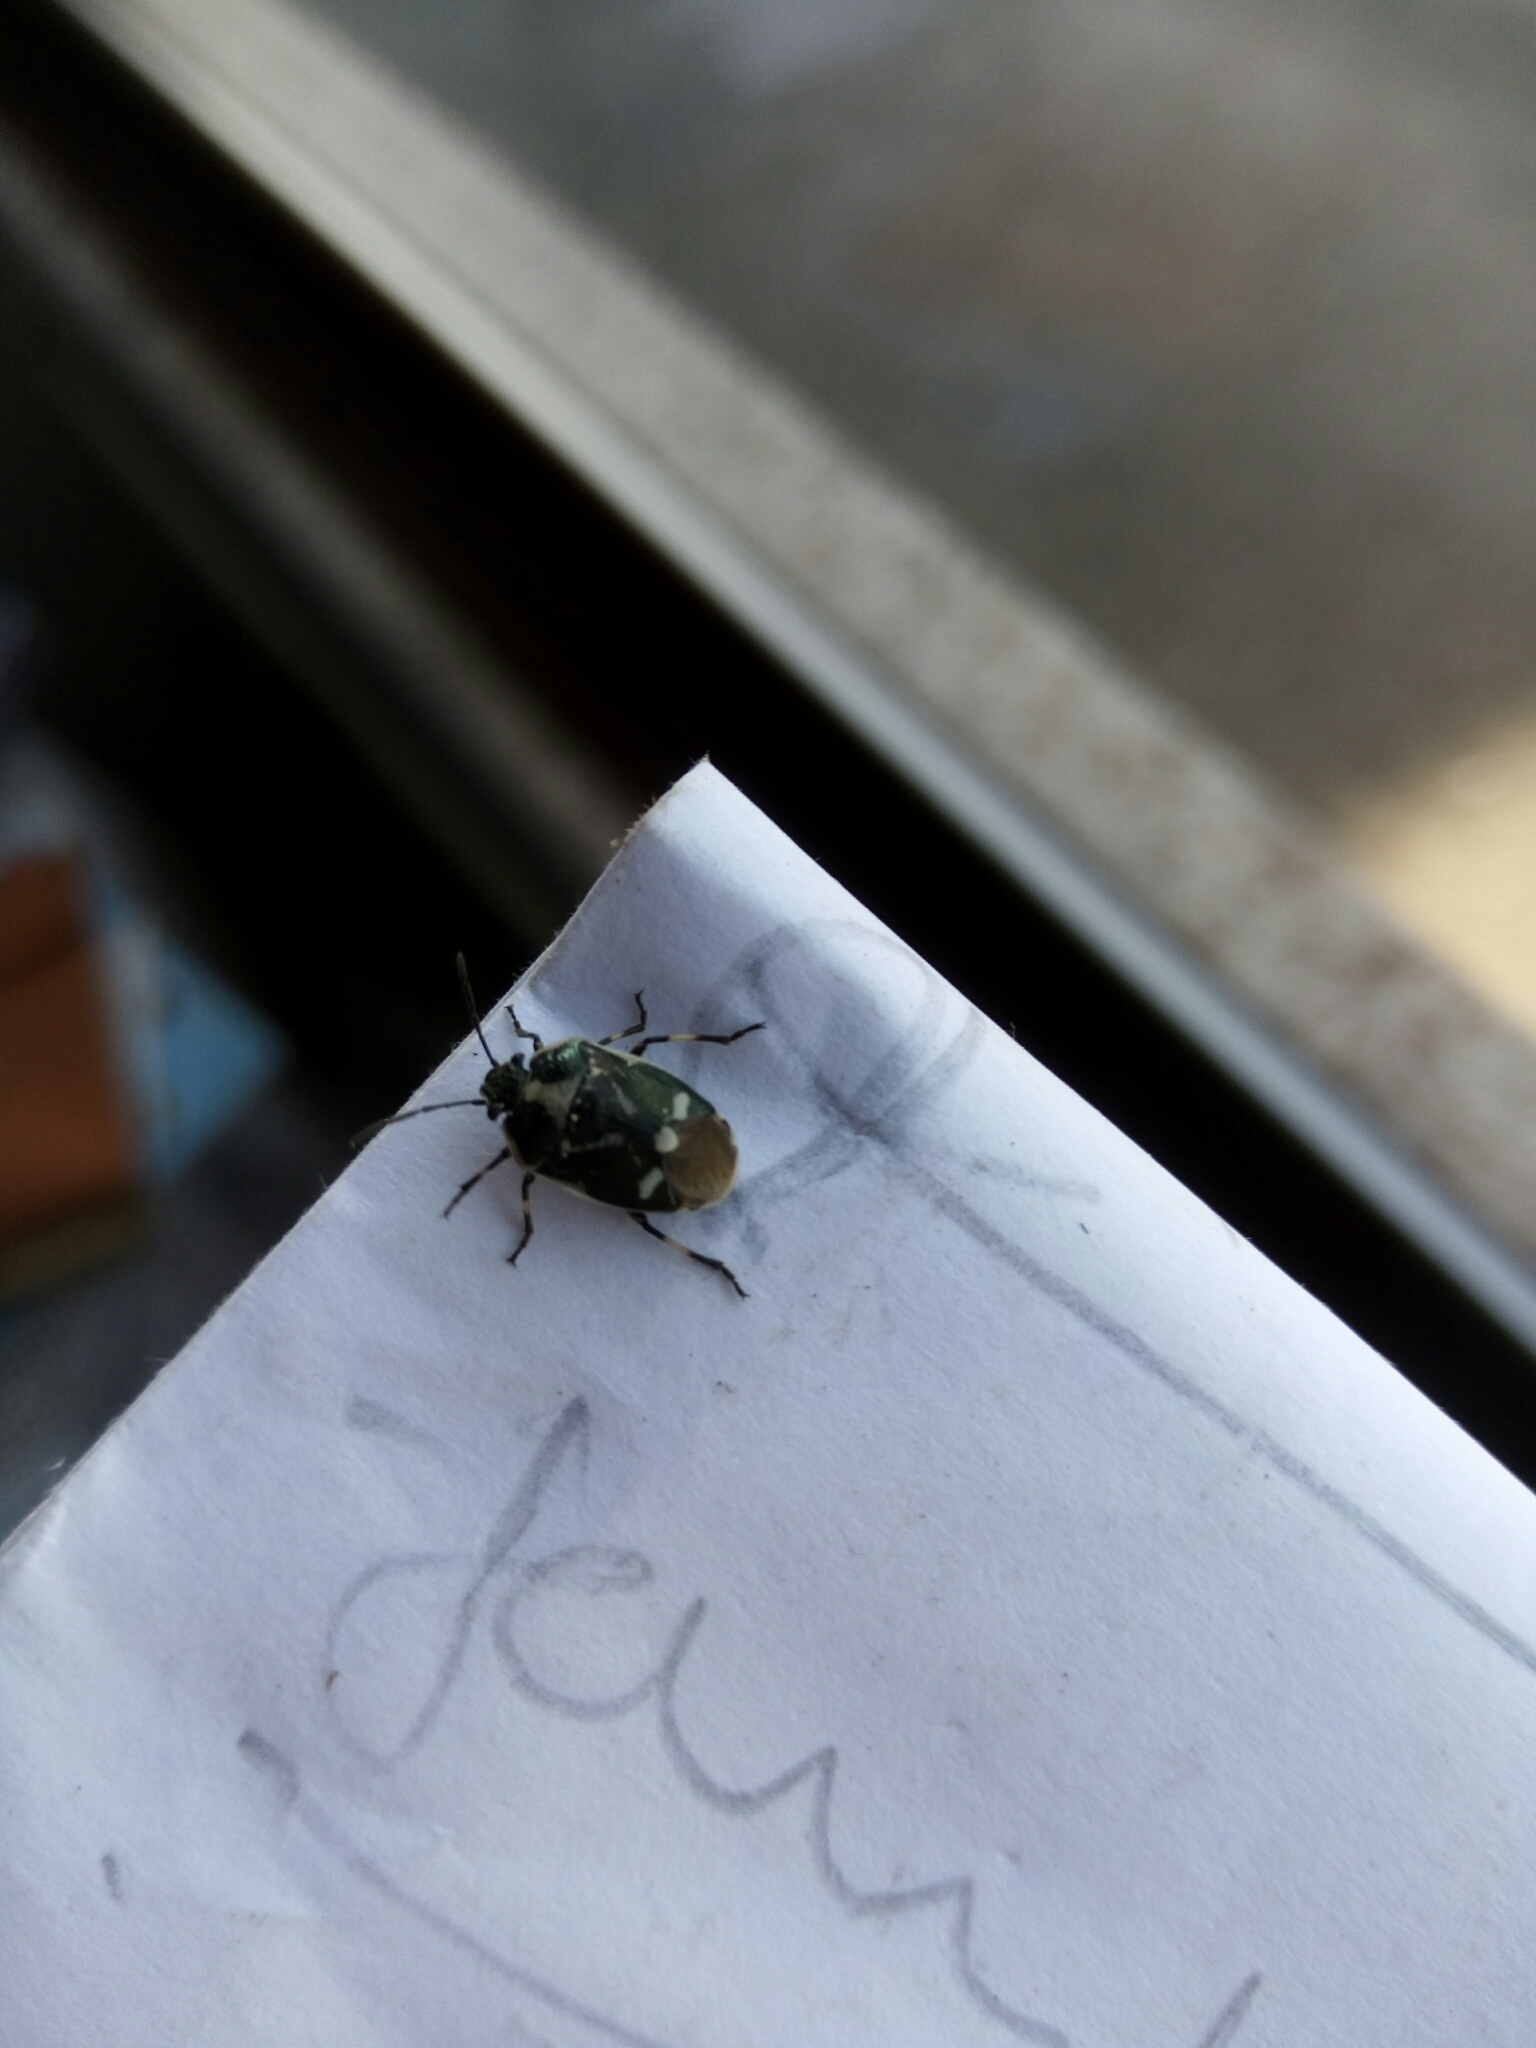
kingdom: Animalia
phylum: Arthropoda
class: Insecta
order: Hemiptera
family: Pentatomidae
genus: Eurydema
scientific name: Eurydema oleracea
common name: Cabbage bug
